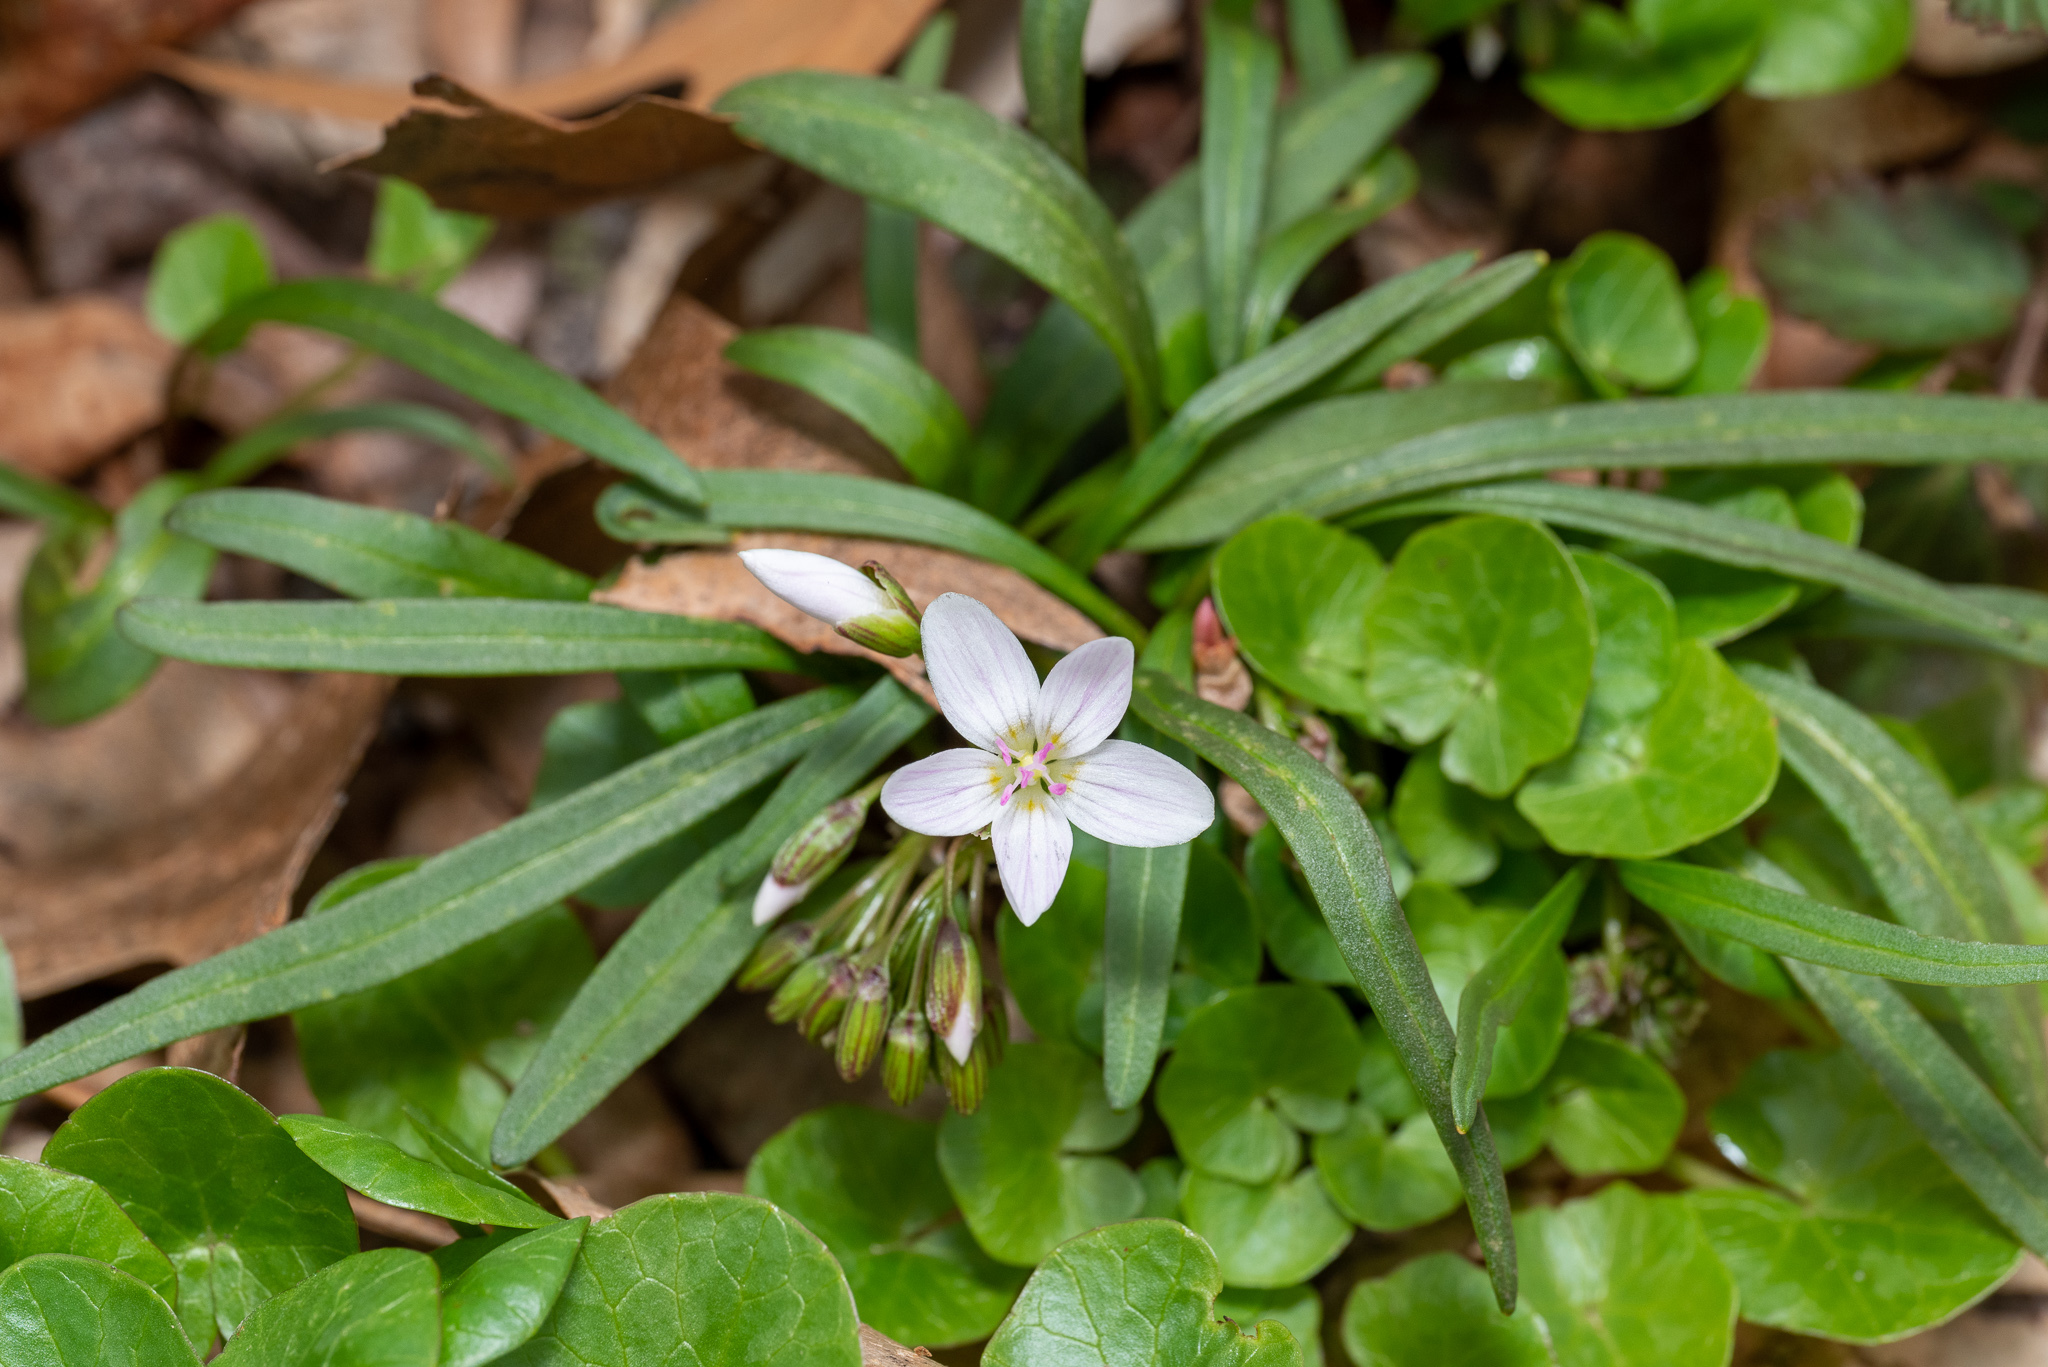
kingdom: Plantae
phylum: Tracheophyta
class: Magnoliopsida
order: Caryophyllales
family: Montiaceae
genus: Claytonia
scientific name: Claytonia virginica
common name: Virginia springbeauty
